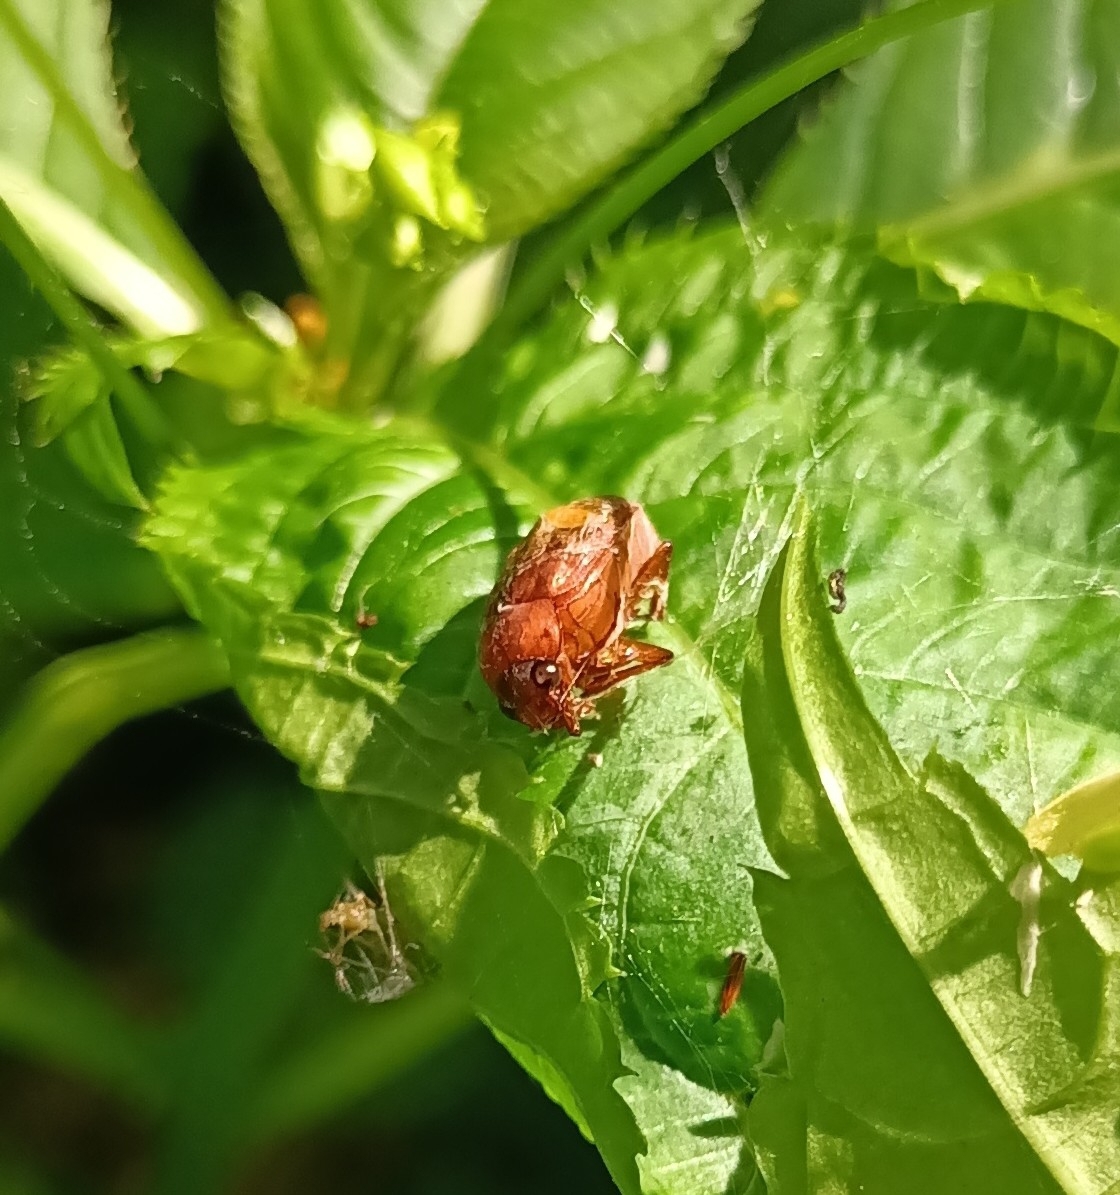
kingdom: Animalia
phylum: Arthropoda
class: Insecta
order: Coleoptera
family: Scarabaeidae
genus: Serica
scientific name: Serica brunnea
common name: Brown chafer
